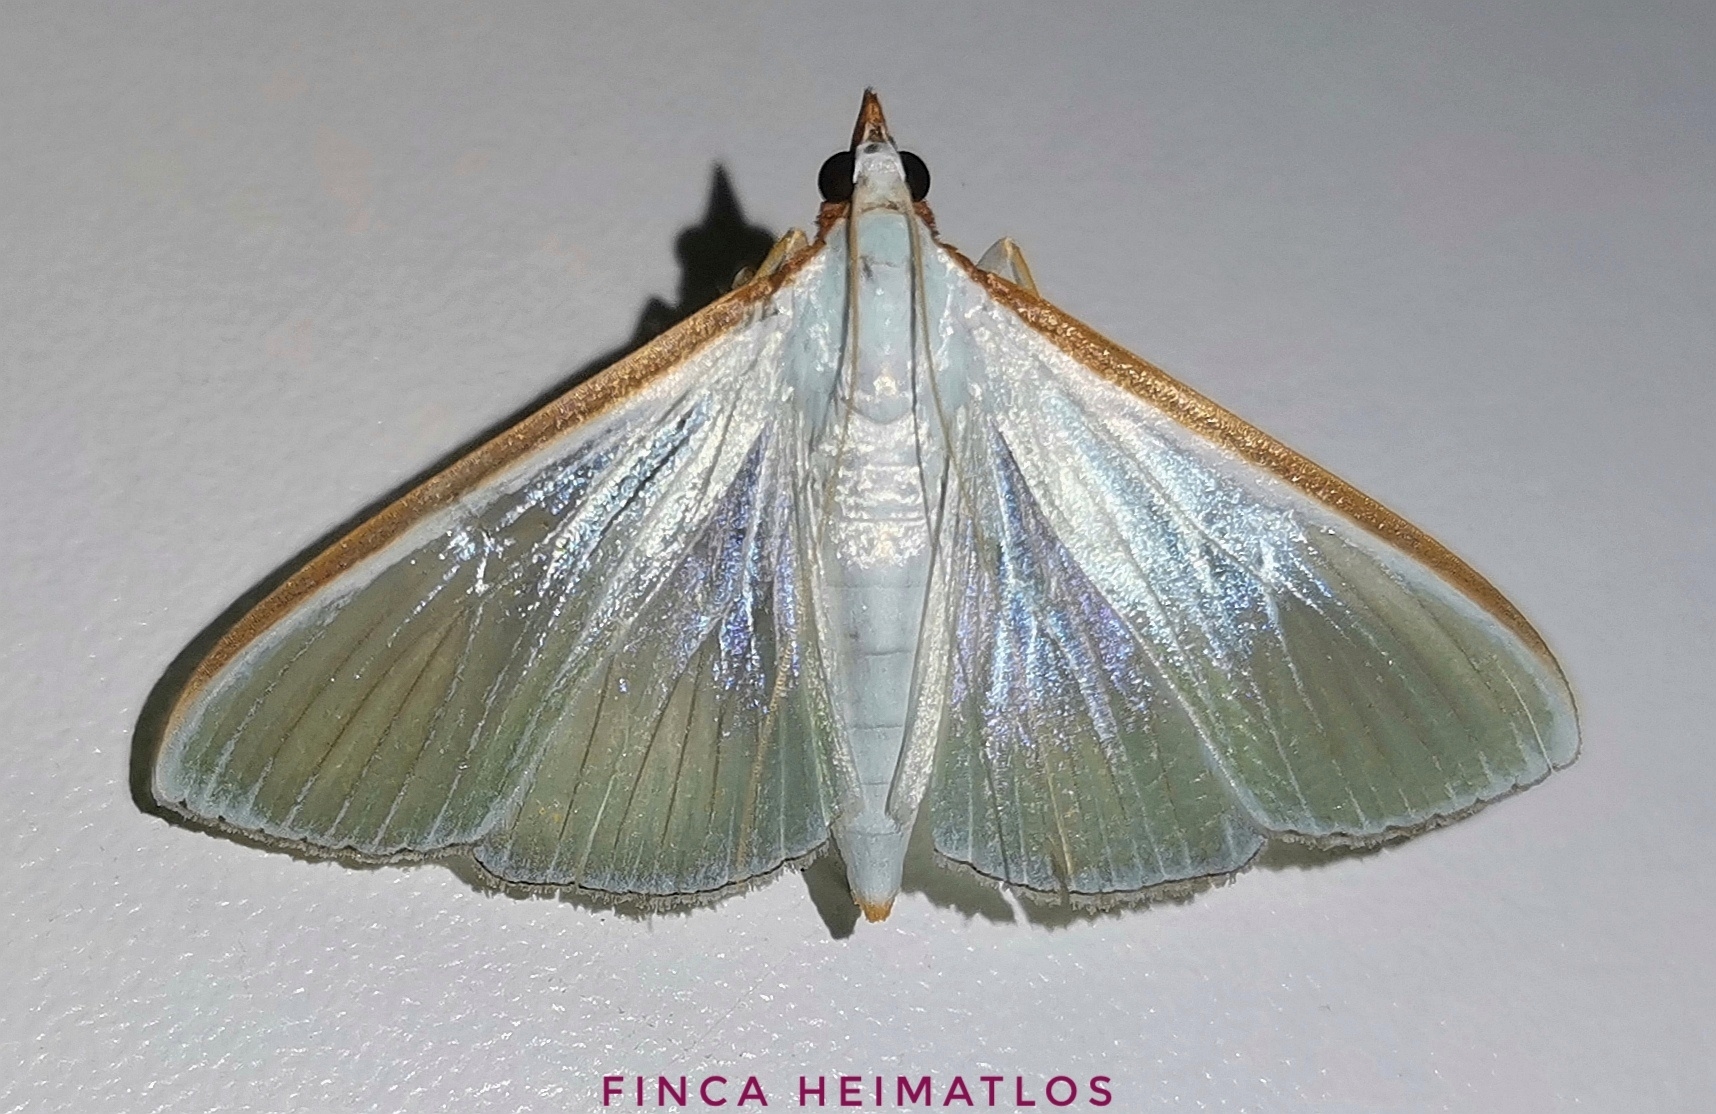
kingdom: Animalia
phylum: Arthropoda
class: Insecta
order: Lepidoptera
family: Crambidae
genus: Diaphania
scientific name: Diaphania glauculalis
